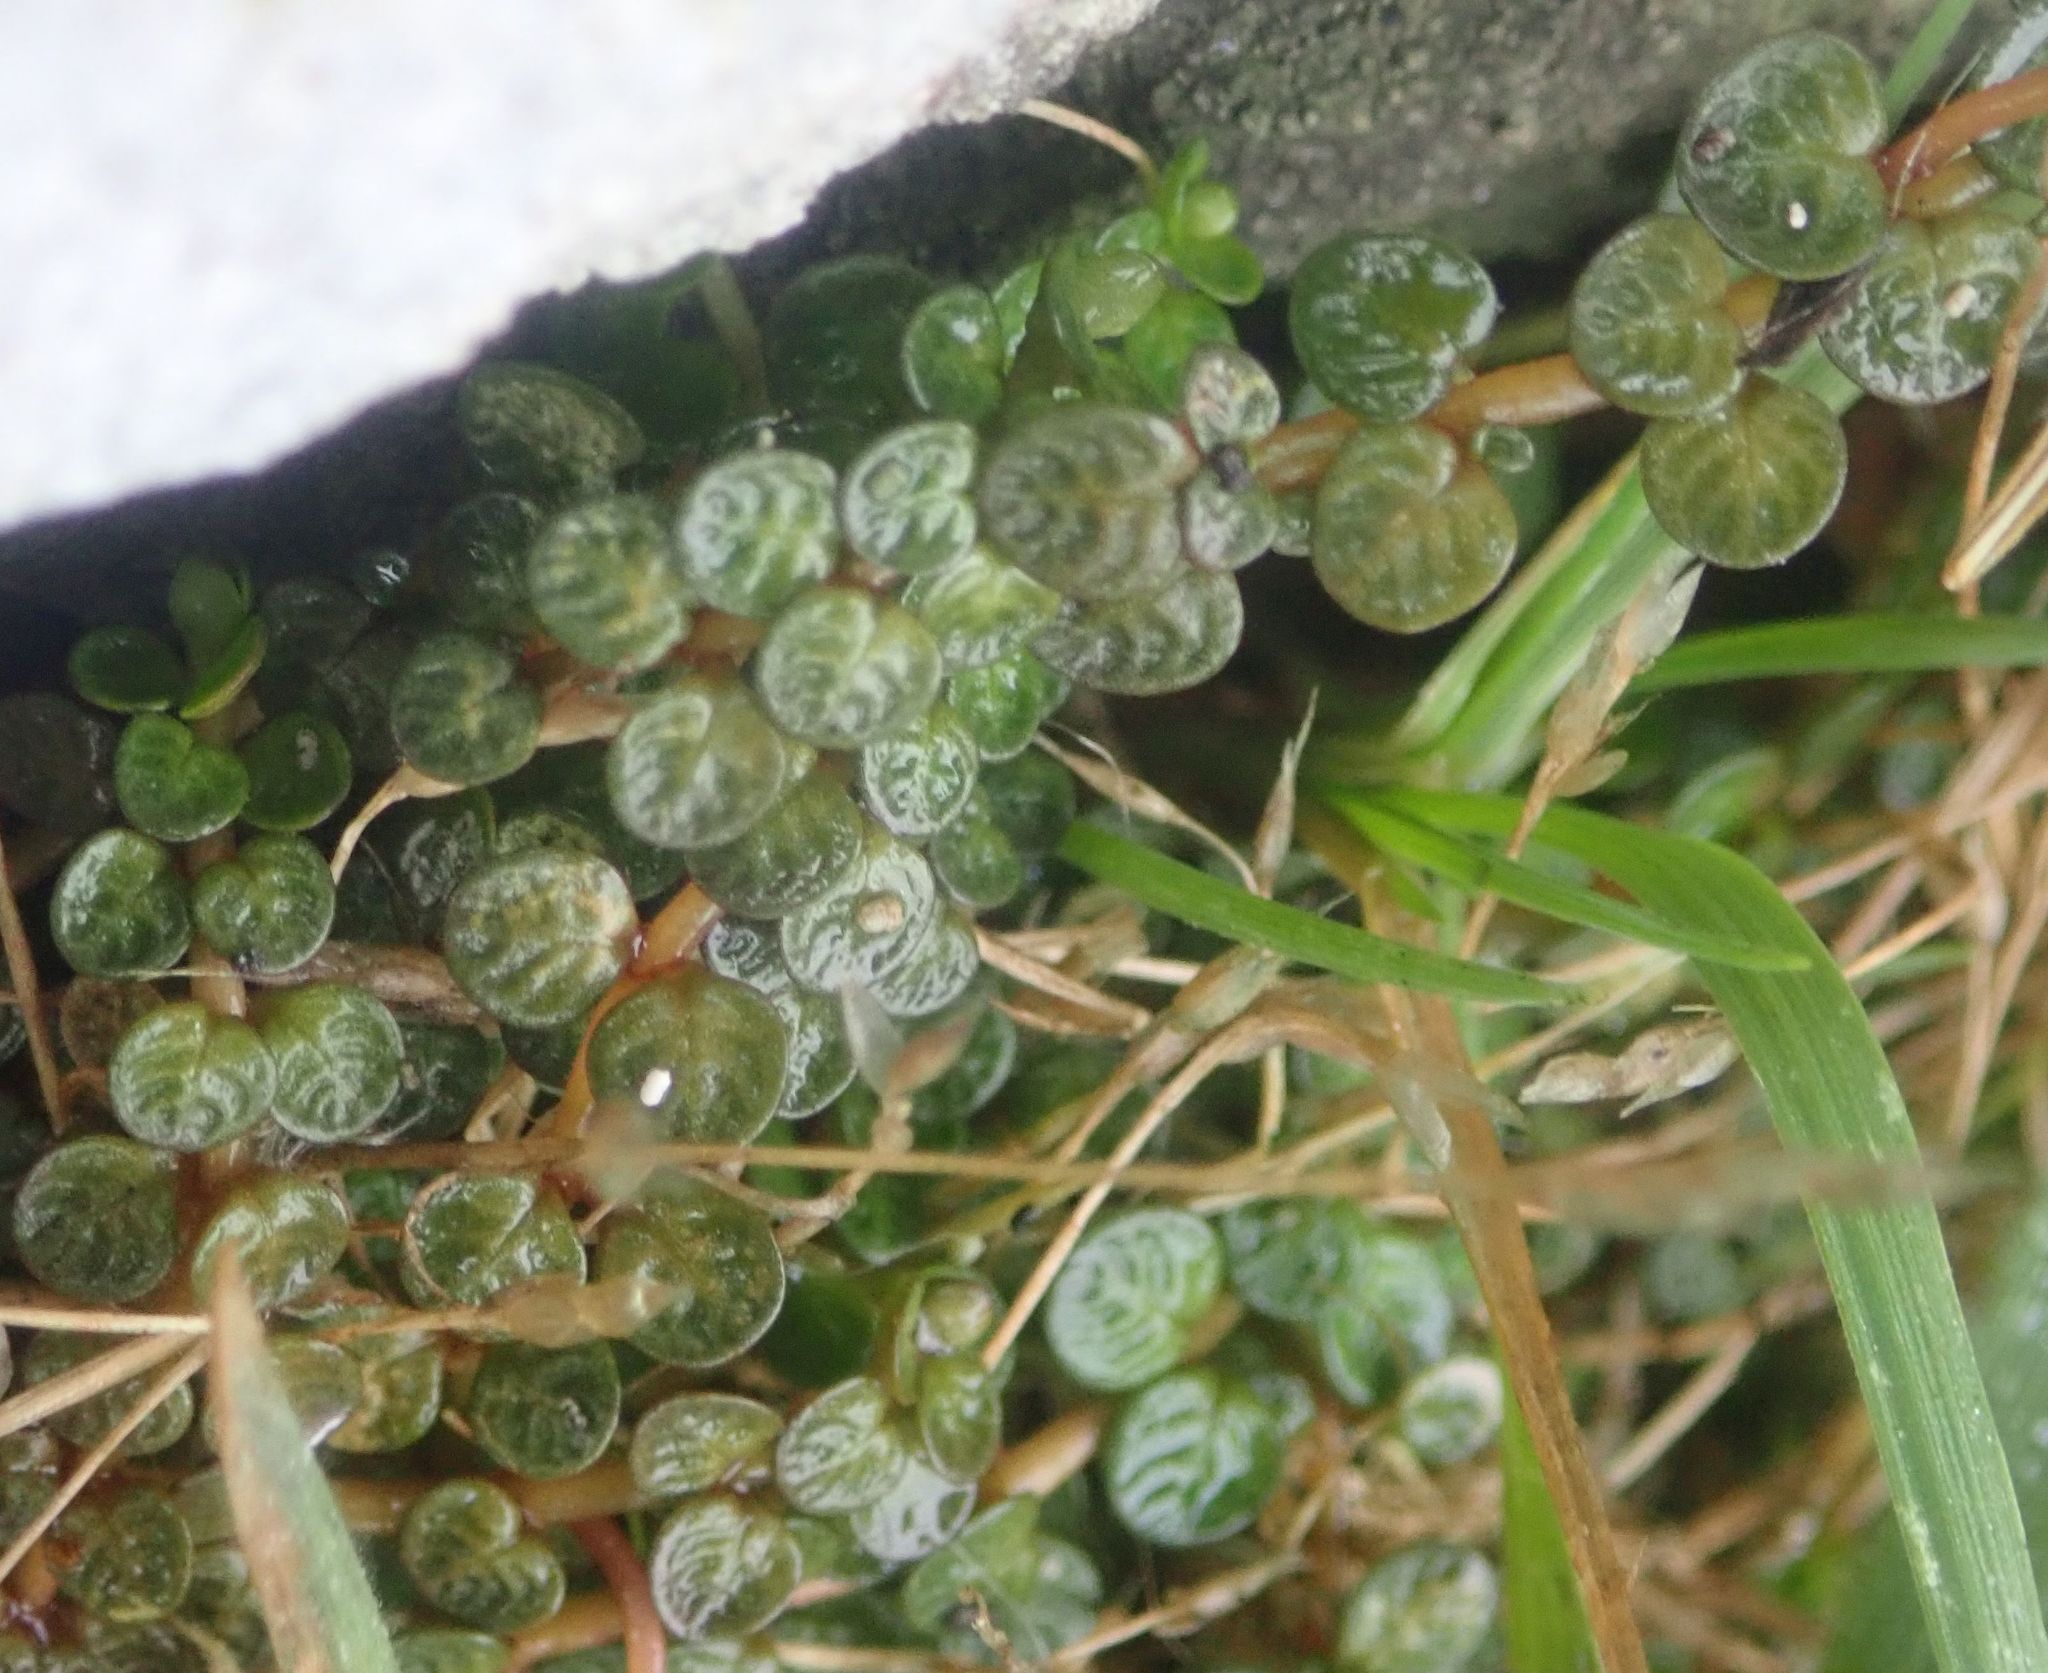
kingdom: Plantae
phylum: Tracheophyta
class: Magnoliopsida
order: Myrtales
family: Onagraceae
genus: Epilobium
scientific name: Epilobium komarovianum
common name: Bronzy willowherb
